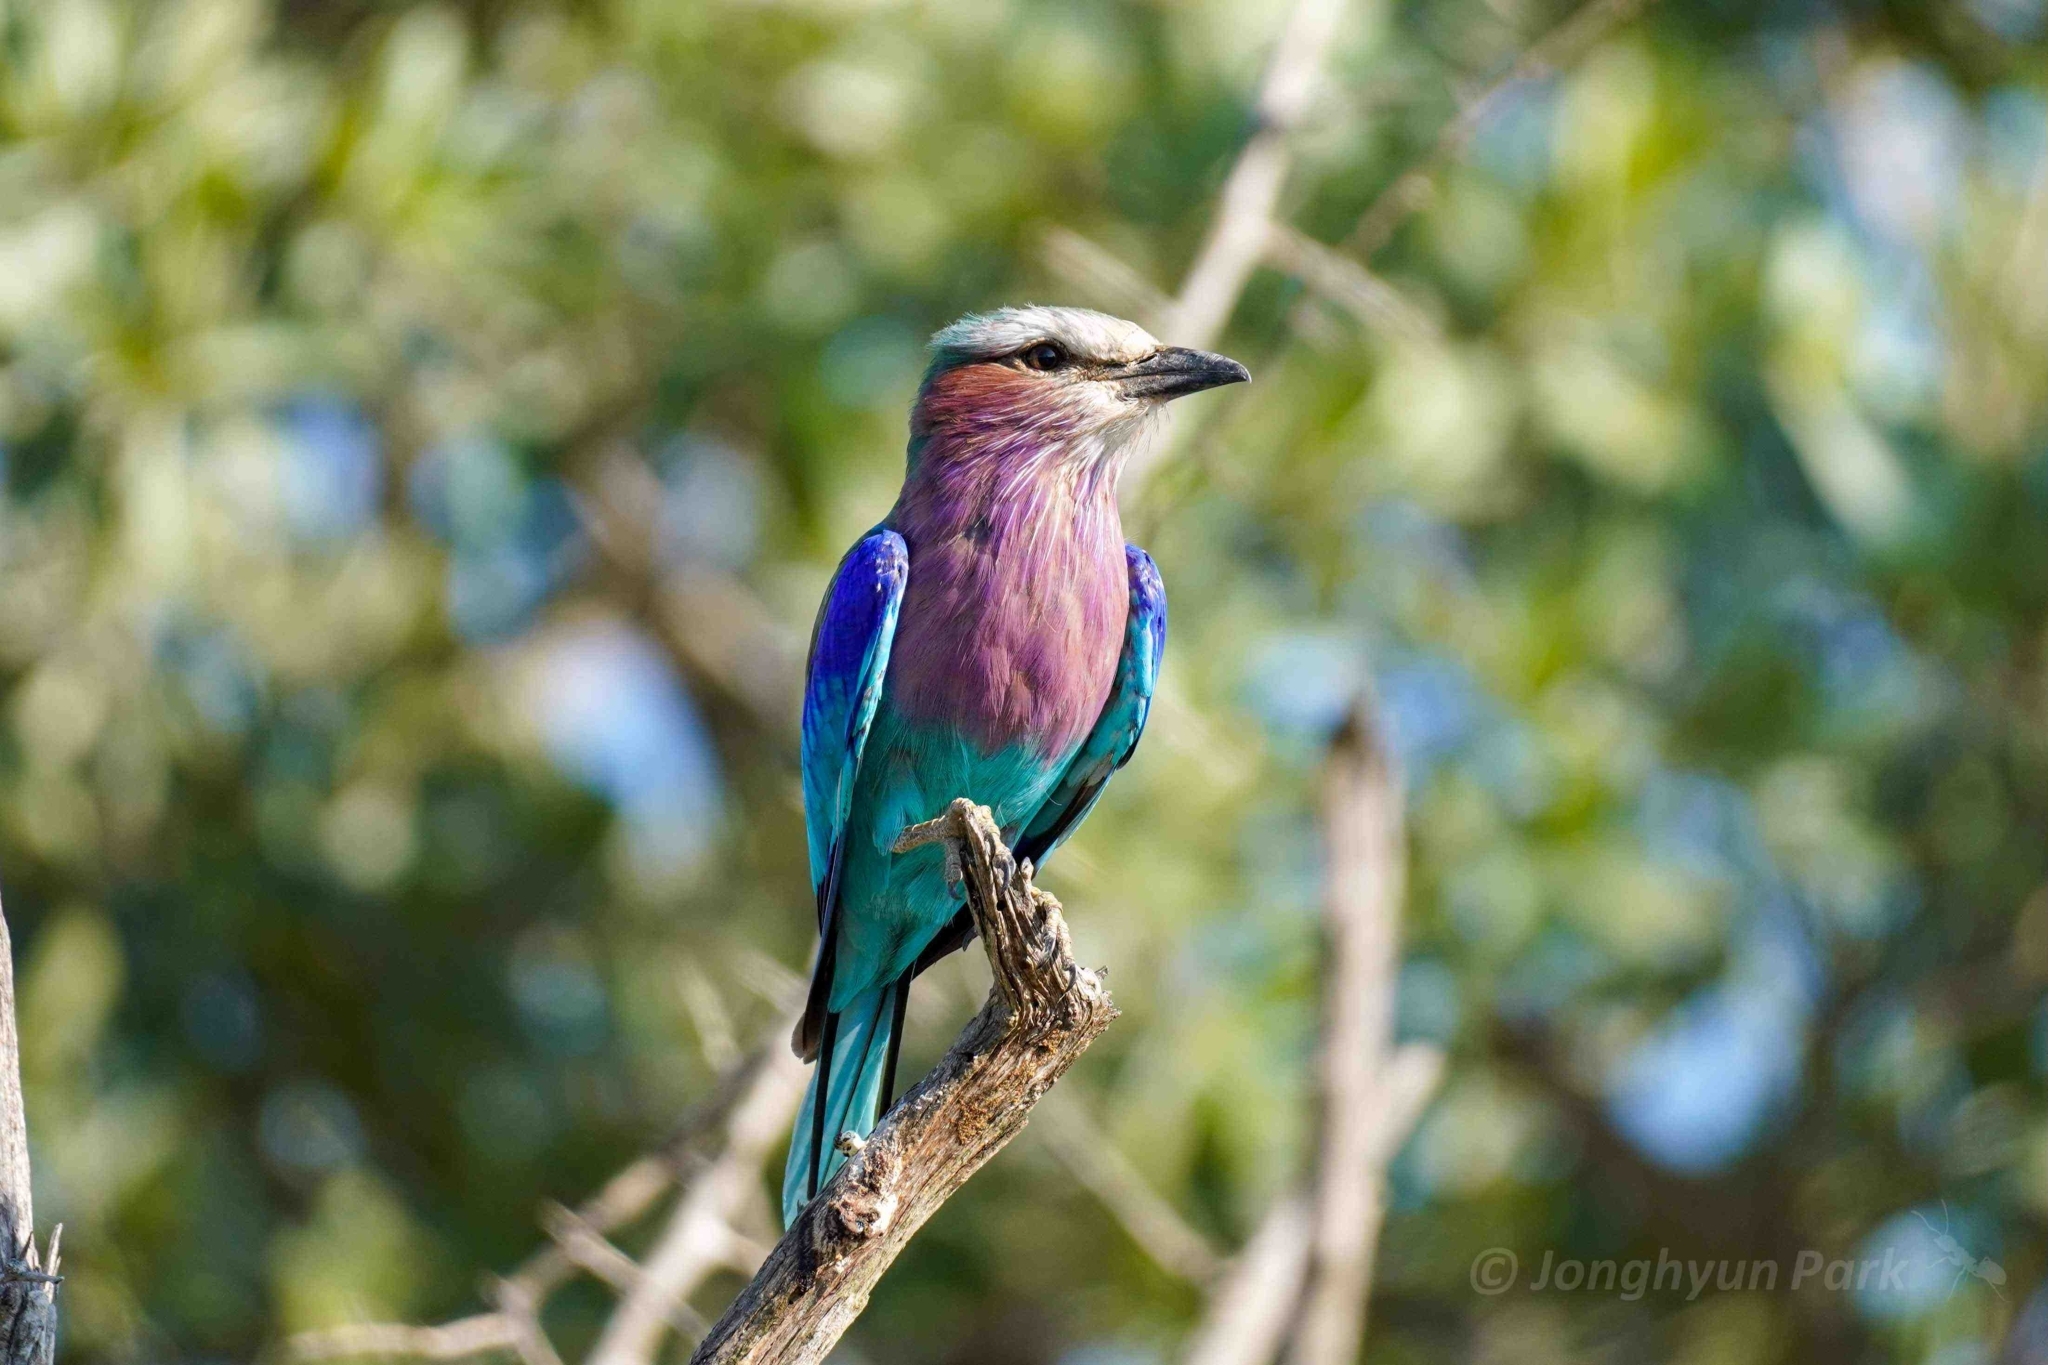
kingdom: Animalia
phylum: Chordata
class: Aves
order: Coraciiformes
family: Coraciidae
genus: Coracias
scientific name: Coracias caudatus
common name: Lilac-breasted roller
